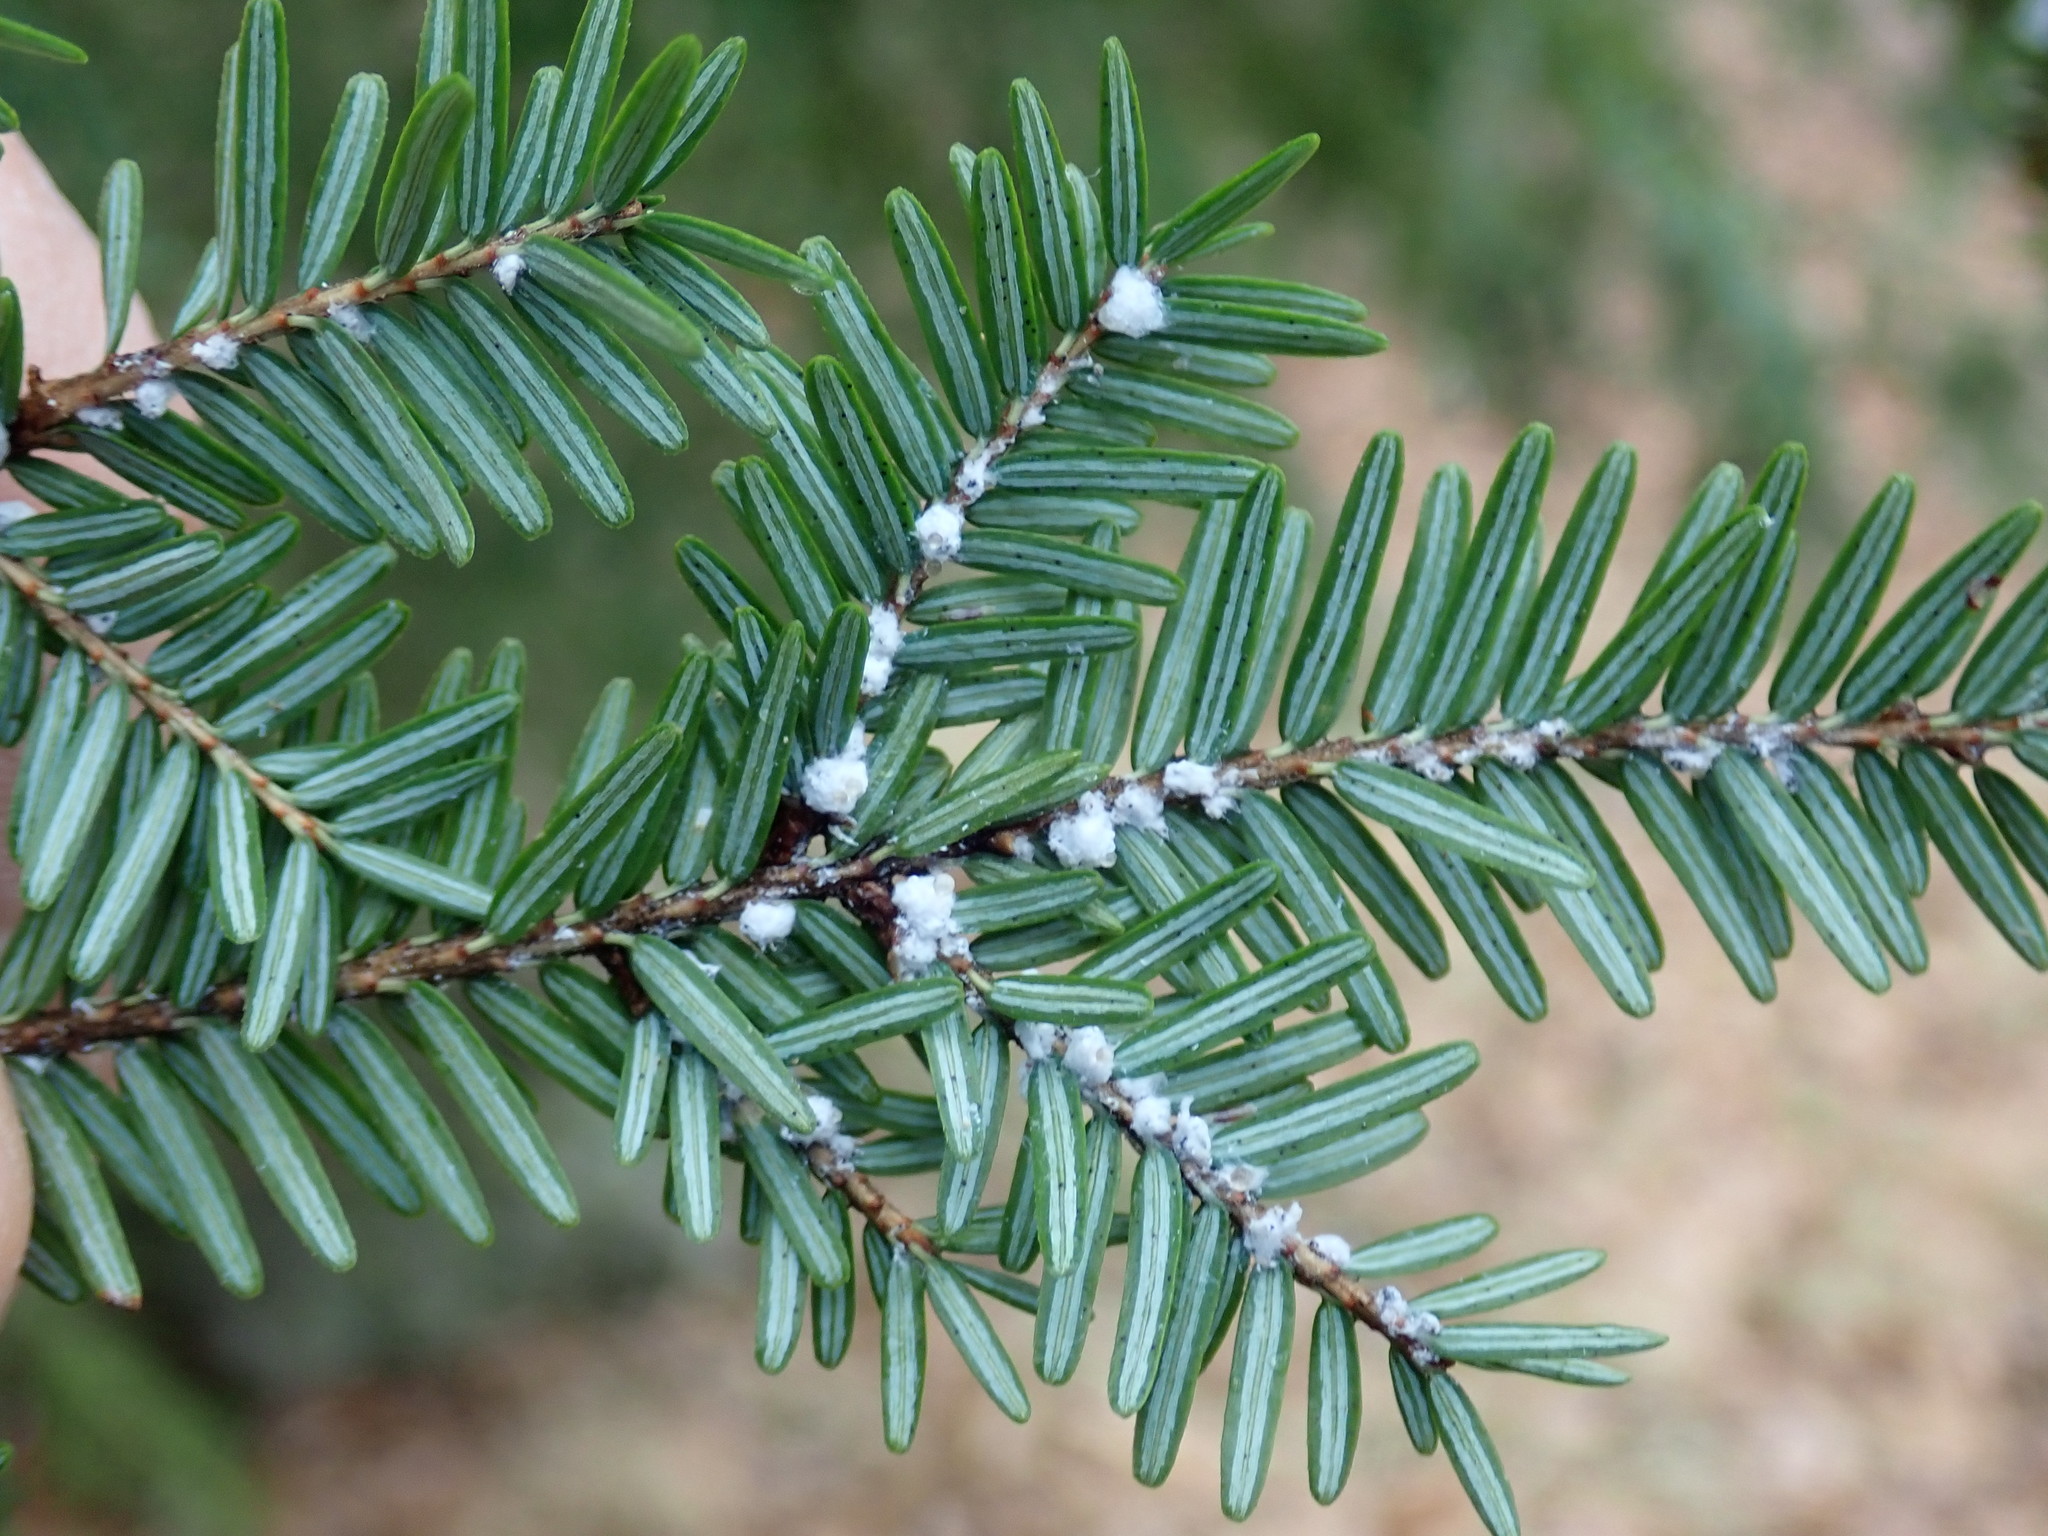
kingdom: Animalia
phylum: Arthropoda
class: Insecta
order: Hemiptera
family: Adelgidae
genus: Adelges
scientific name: Adelges tsugae
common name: Hemlock woolly adelgid
